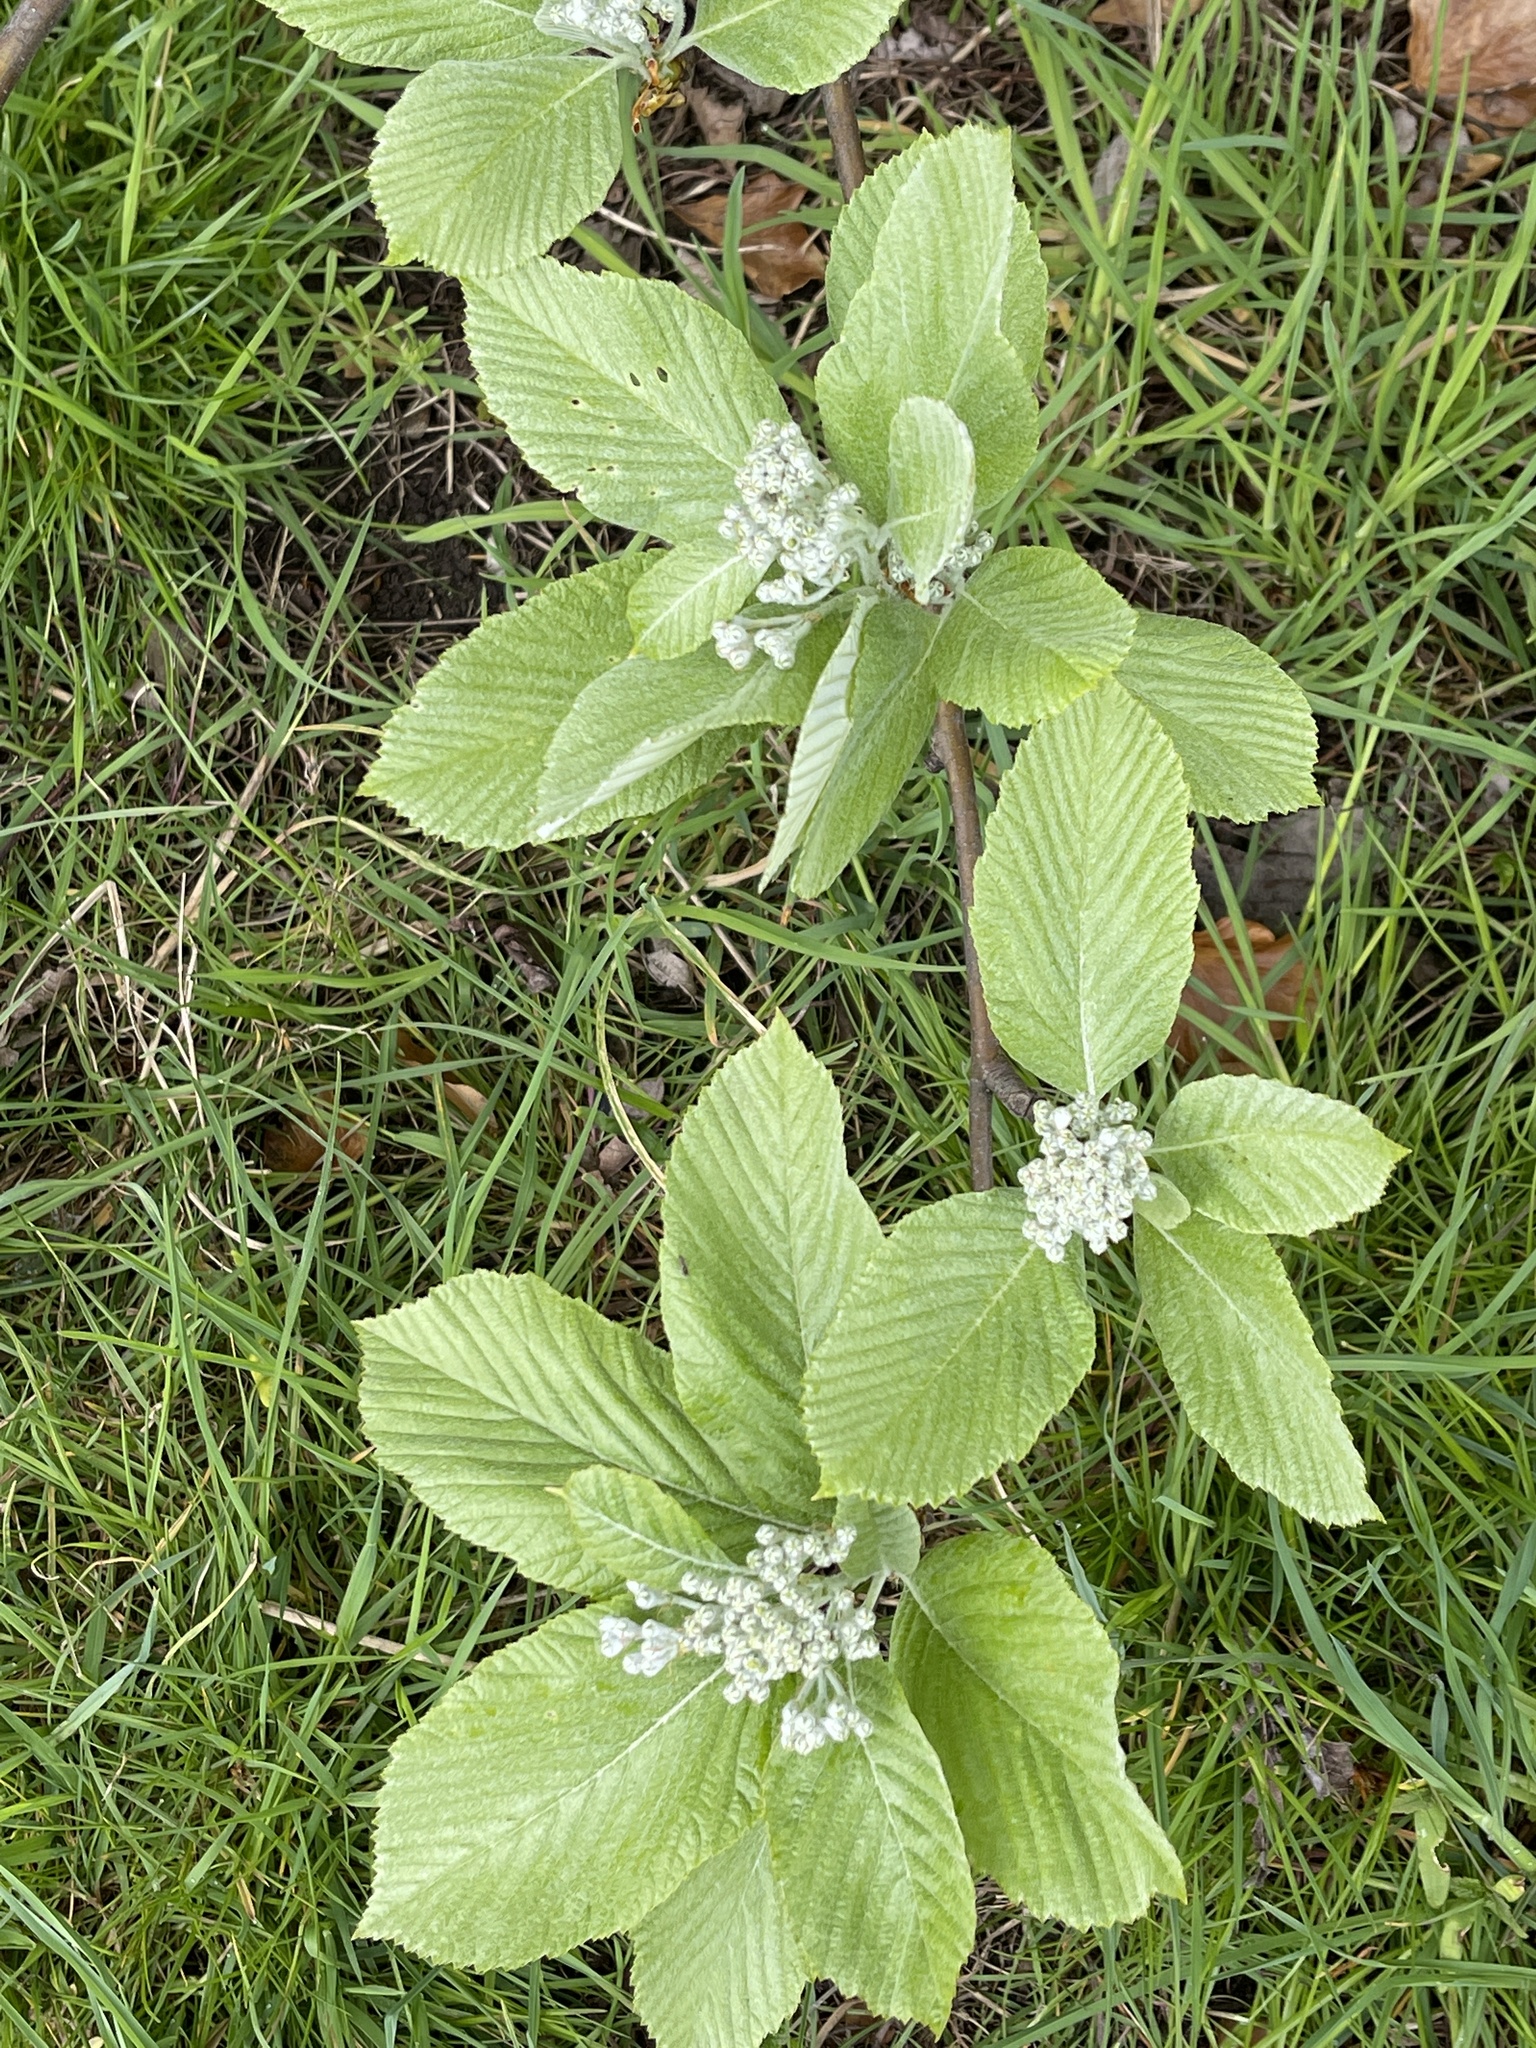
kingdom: Plantae
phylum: Tracheophyta
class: Magnoliopsida
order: Rosales
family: Rosaceae
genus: Aria
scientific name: Aria edulis
